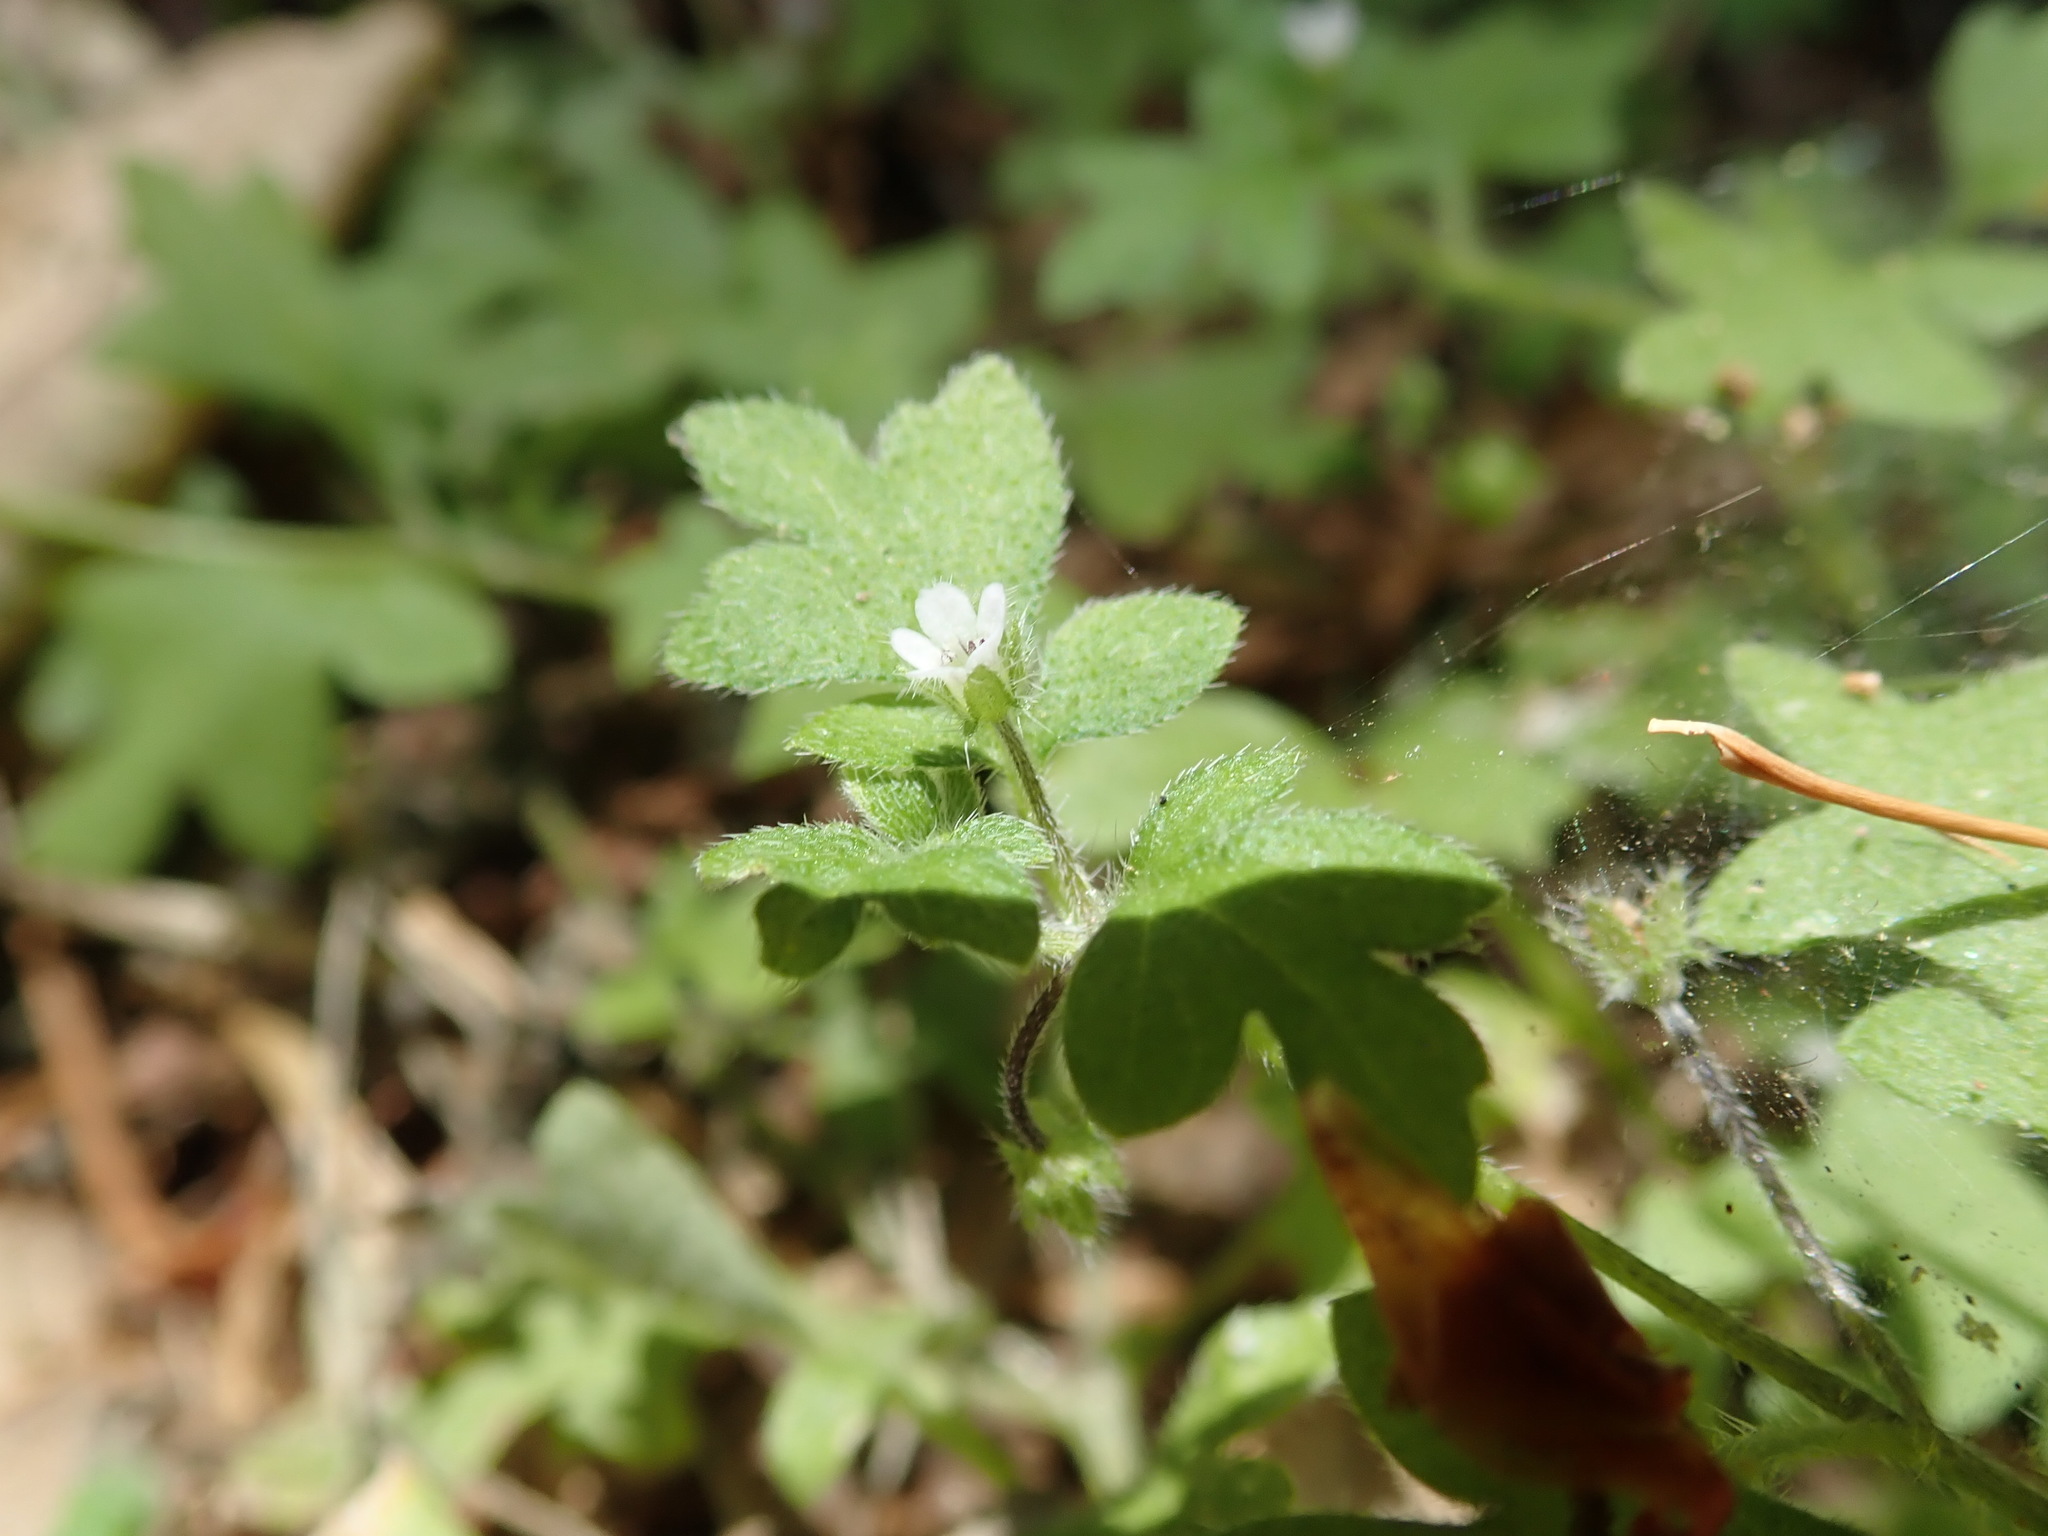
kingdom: Plantae
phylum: Tracheophyta
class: Magnoliopsida
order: Boraginales
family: Hydrophyllaceae
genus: Nemophila
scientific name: Nemophila parviflora
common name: Small-flowered baby-blue-eyes
